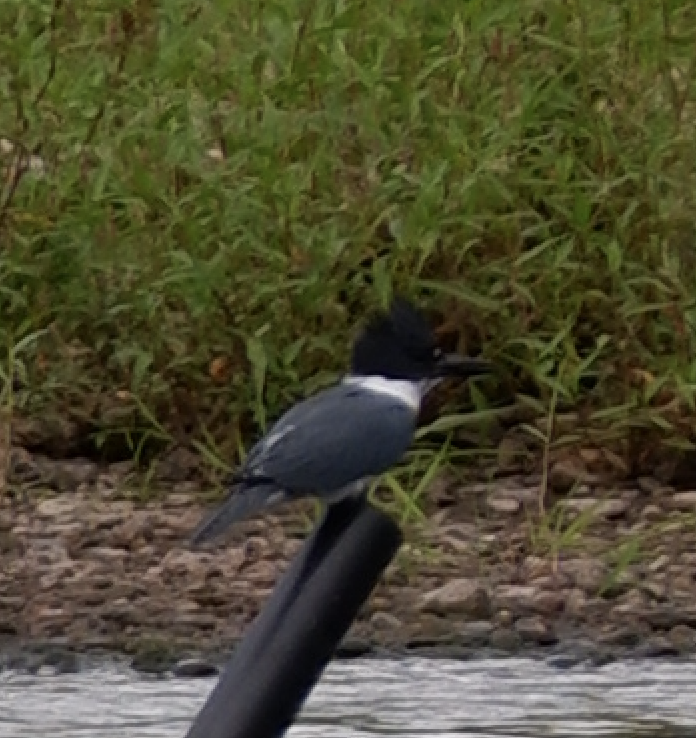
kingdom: Animalia
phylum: Chordata
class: Aves
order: Coraciiformes
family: Alcedinidae
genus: Megaceryle
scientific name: Megaceryle alcyon
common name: Belted kingfisher
